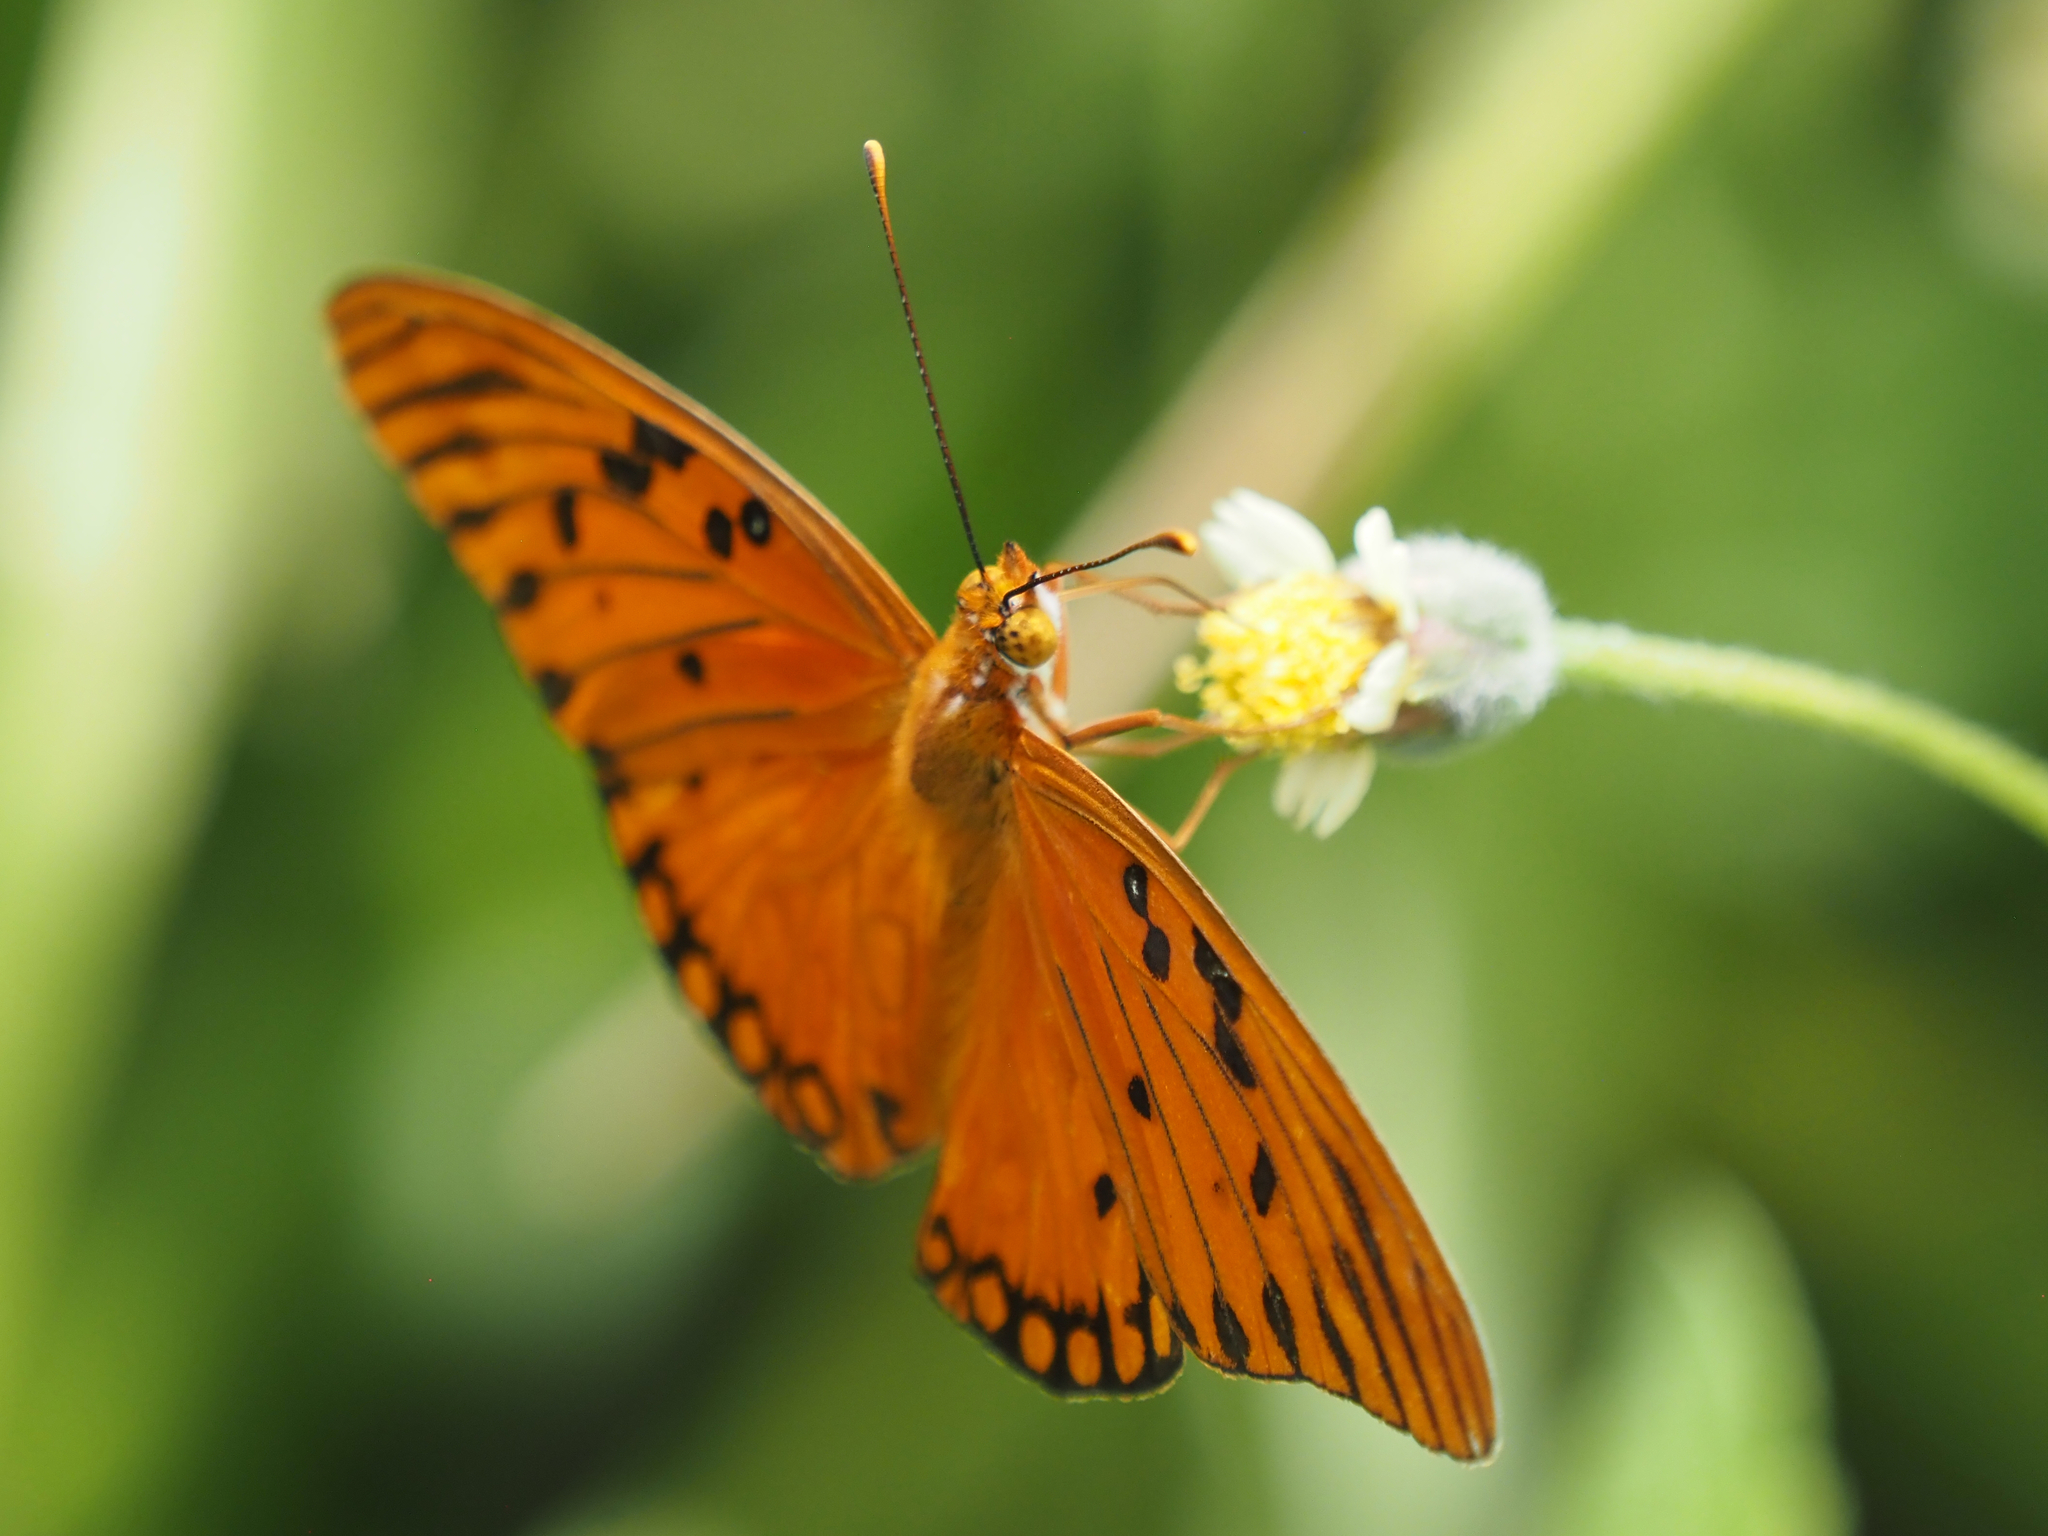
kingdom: Animalia
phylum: Arthropoda
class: Insecta
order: Lepidoptera
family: Nymphalidae
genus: Dione
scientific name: Dione vanillae
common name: Gulf fritillary
